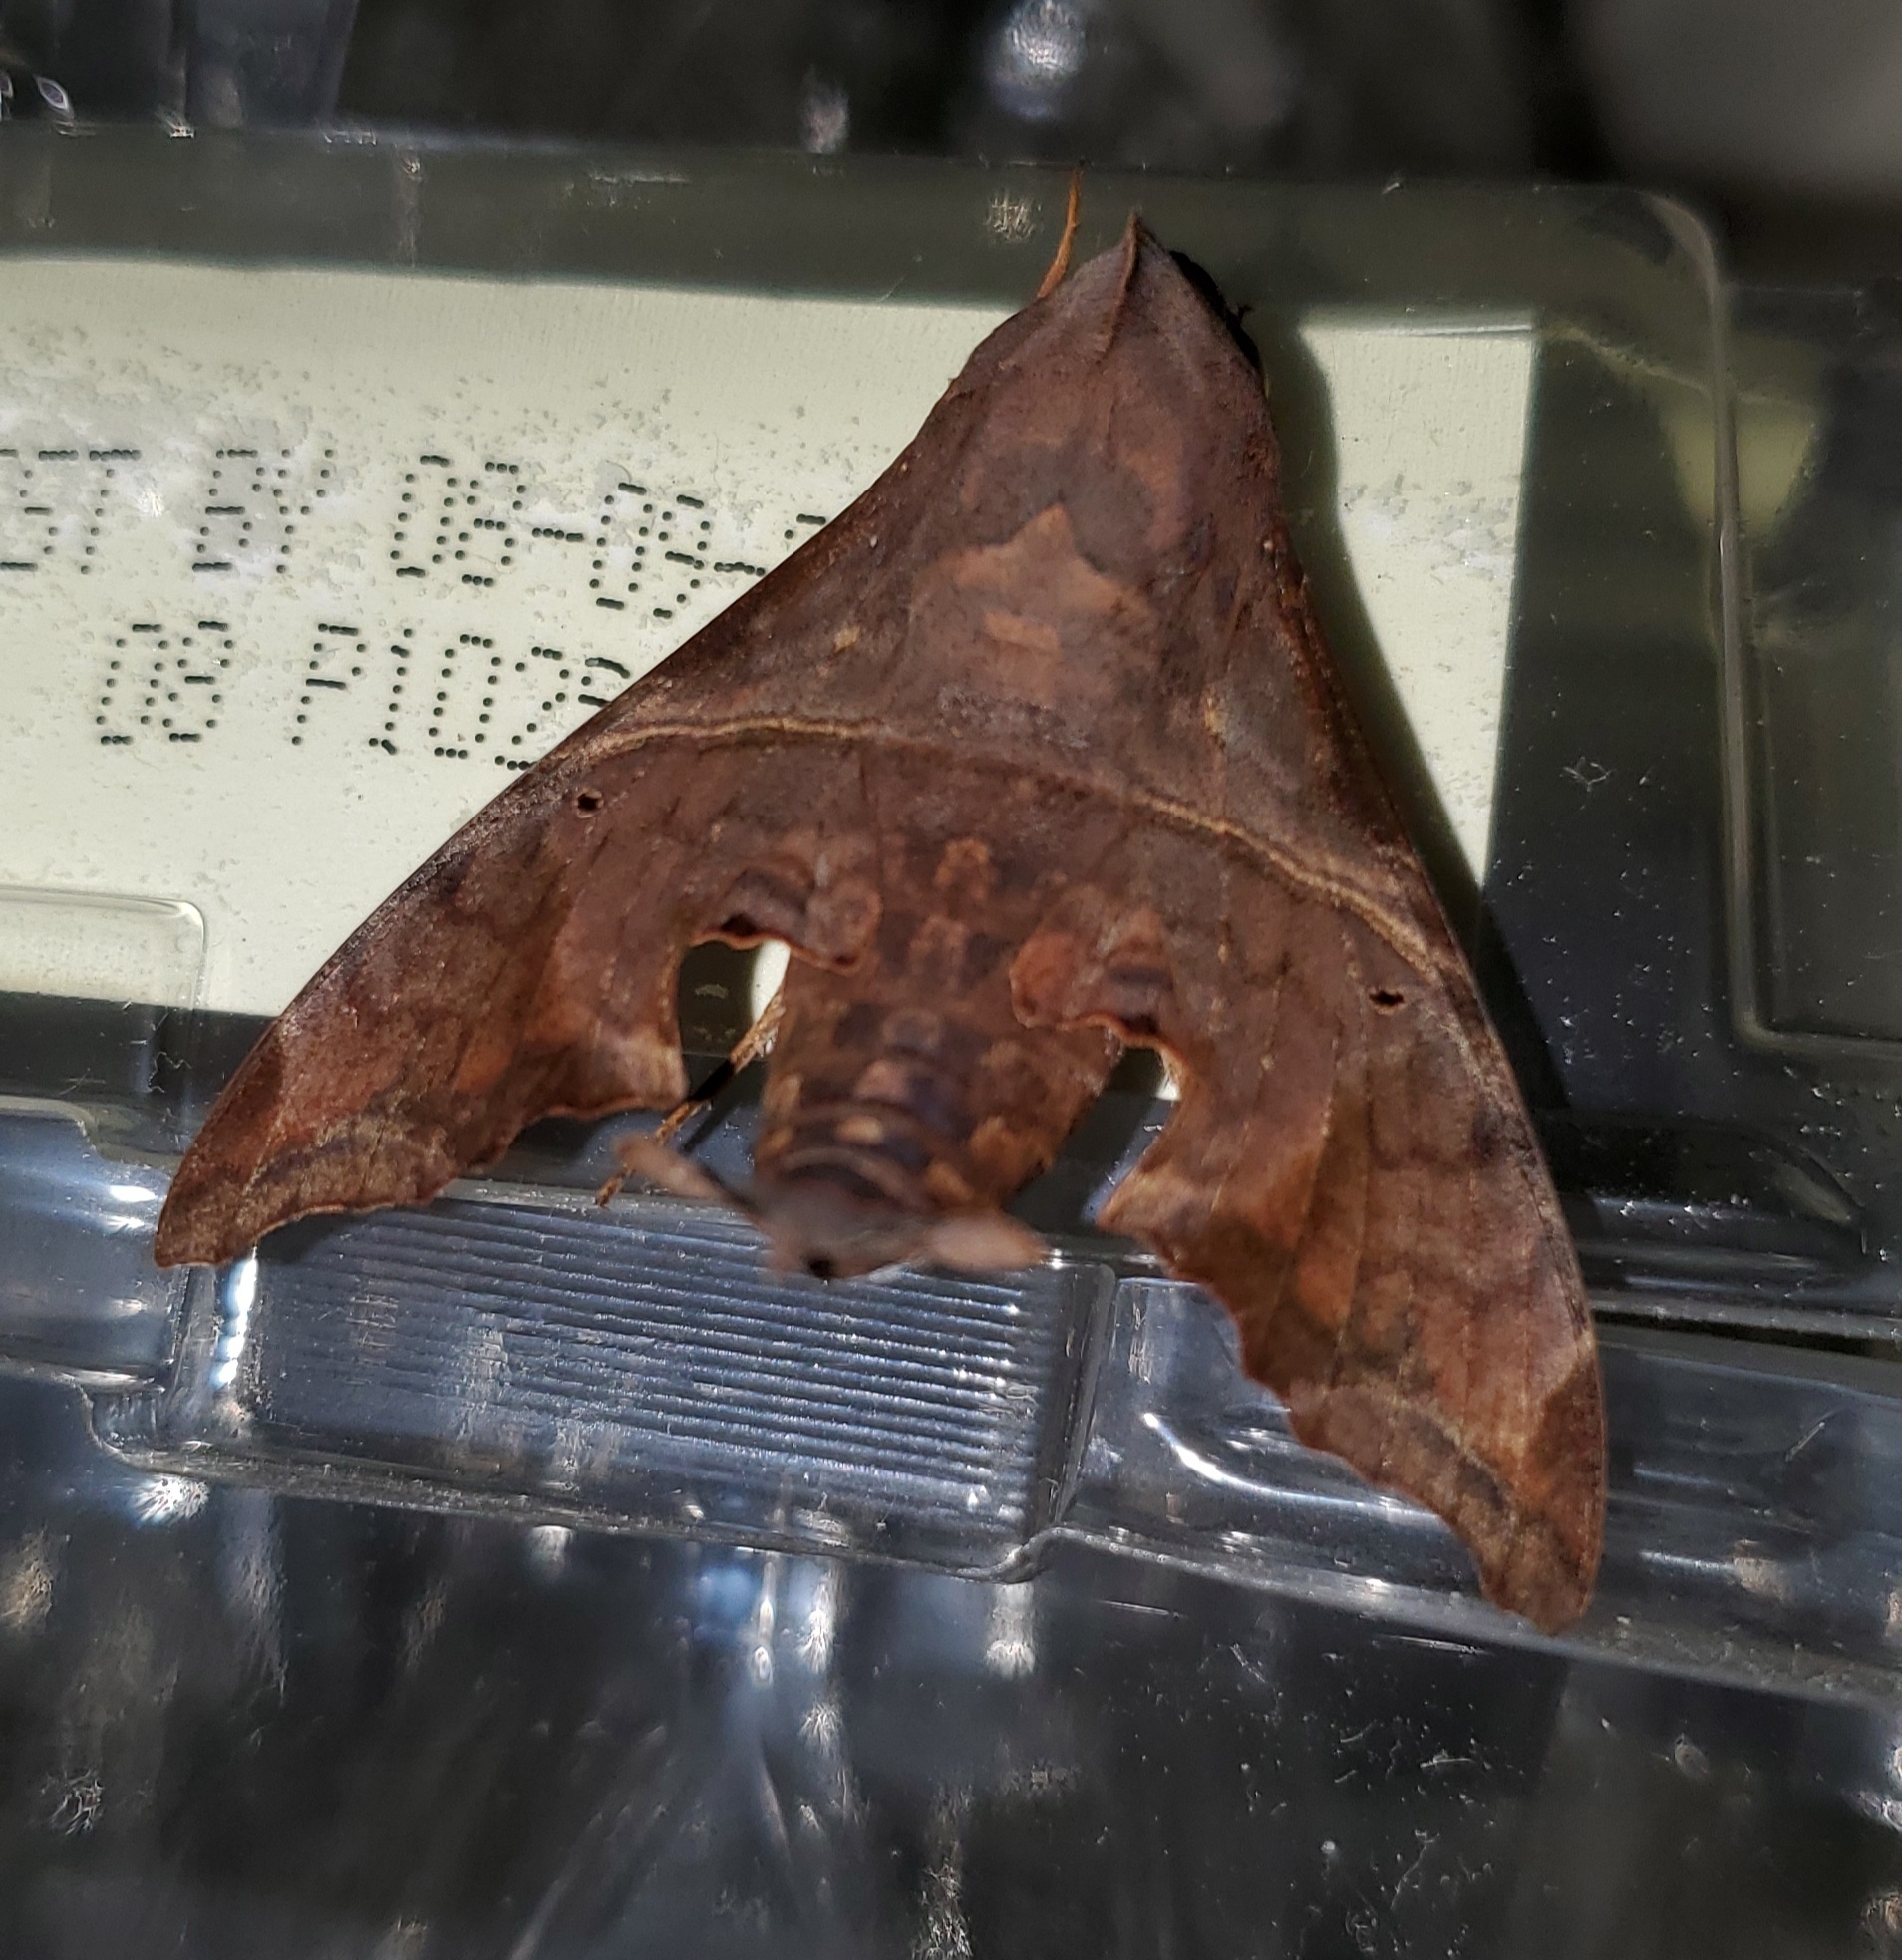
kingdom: Animalia
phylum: Arthropoda
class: Insecta
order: Lepidoptera
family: Sphingidae
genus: Enyo
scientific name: Enyo lugubris
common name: Mournful sphinx
